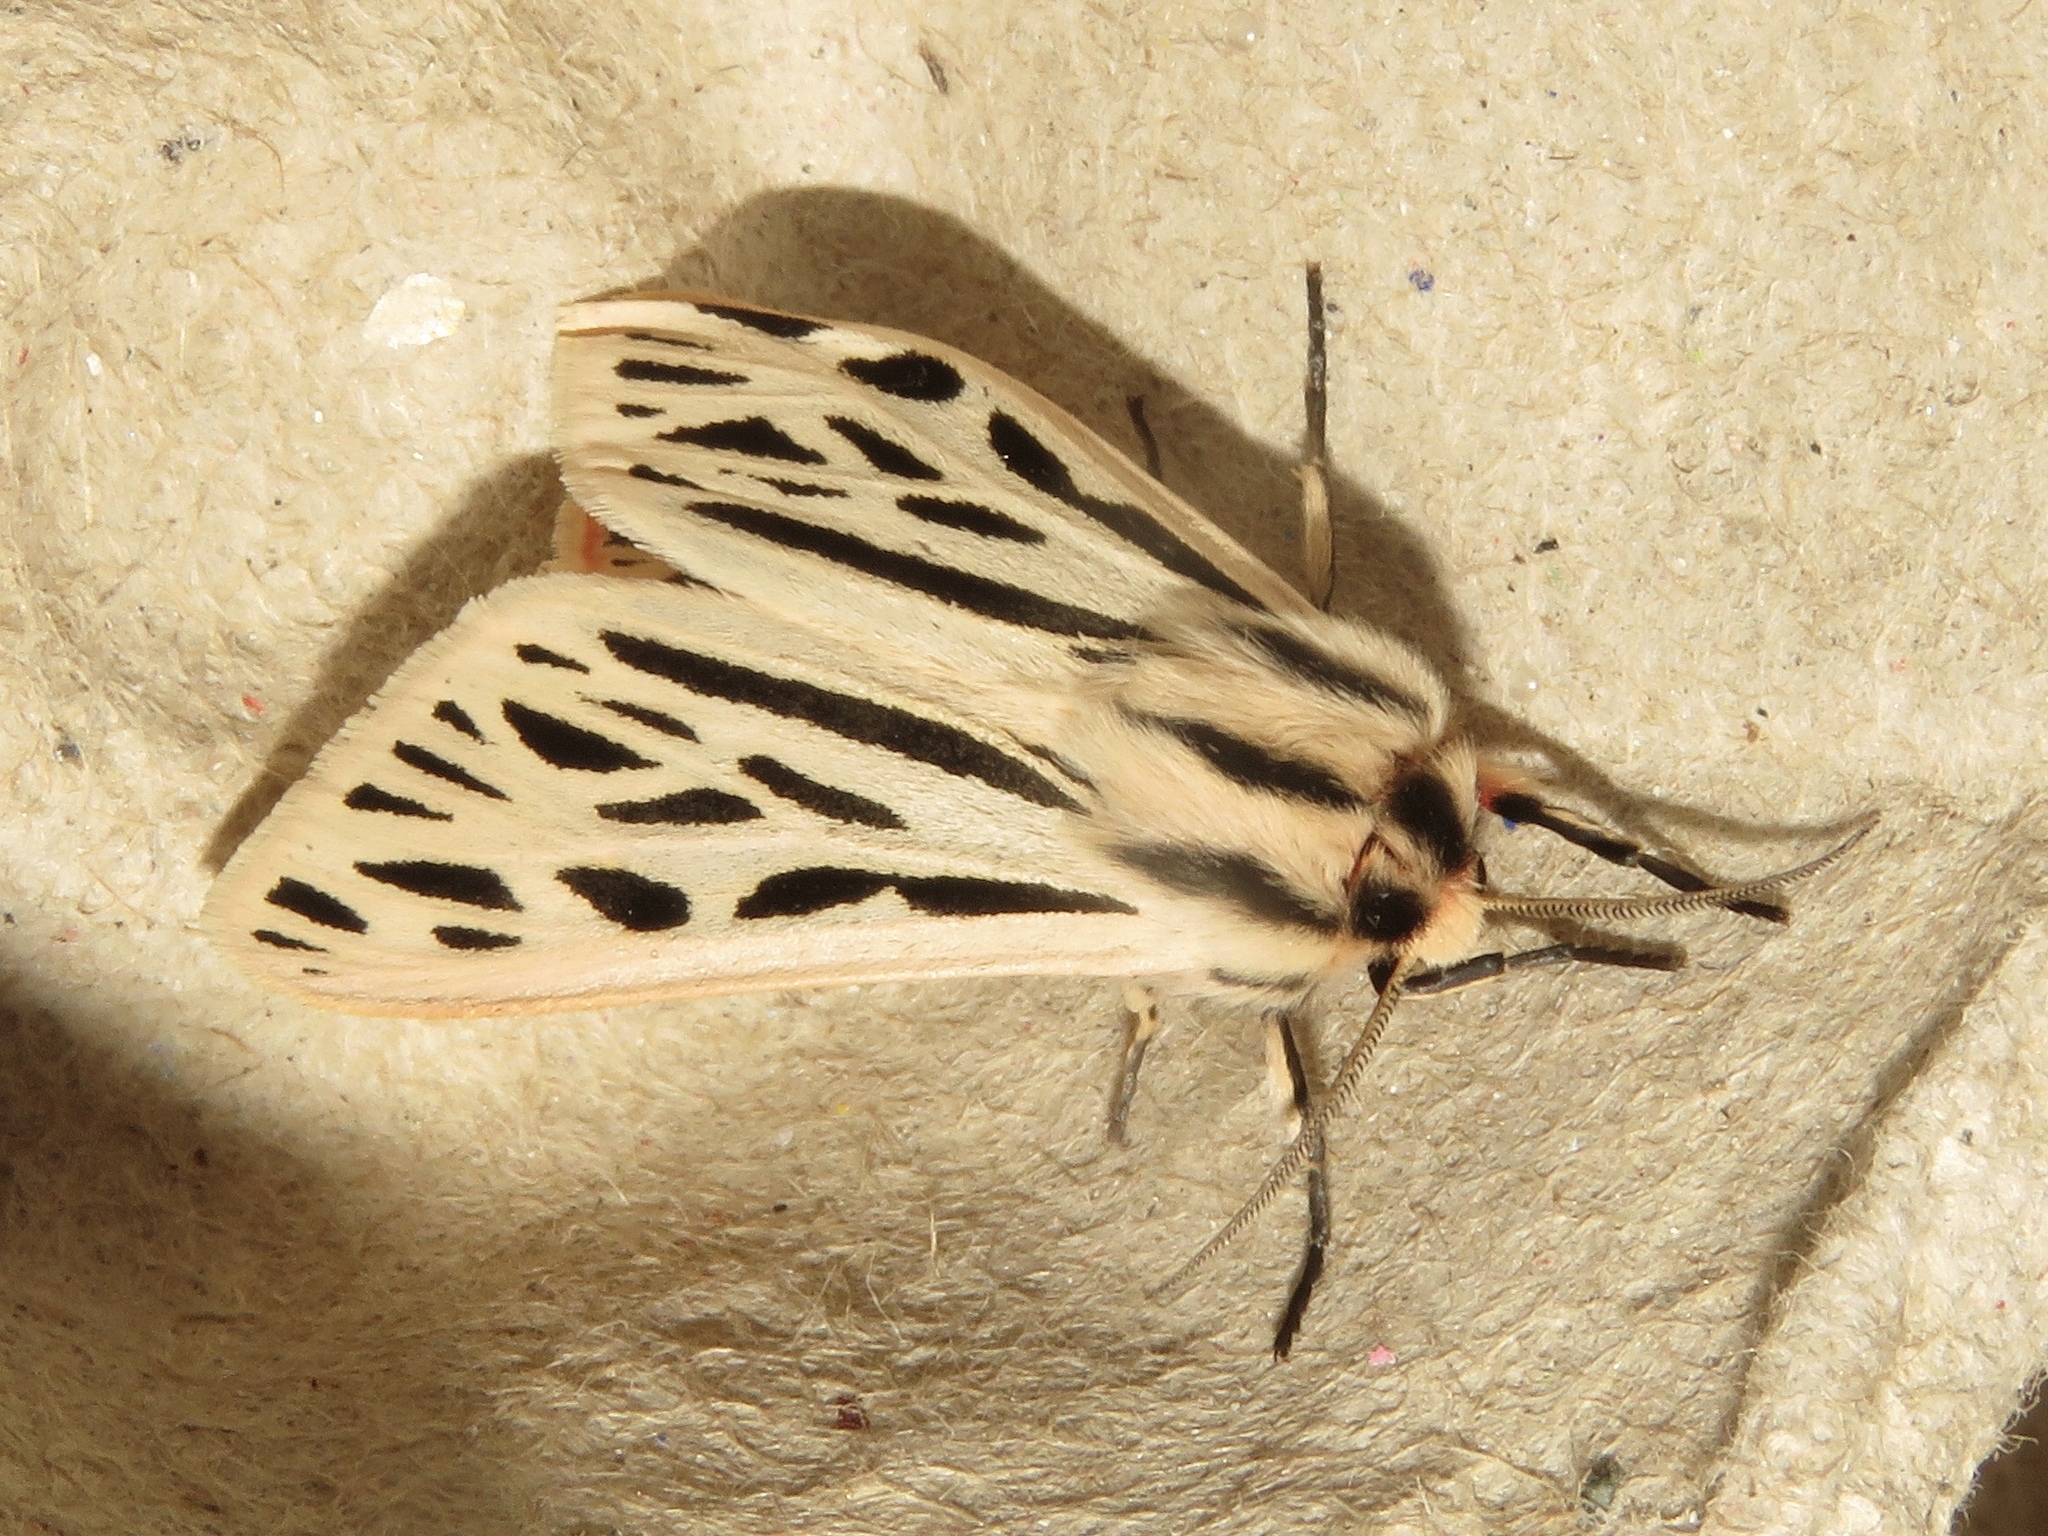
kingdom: Animalia
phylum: Arthropoda
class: Insecta
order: Lepidoptera
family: Erebidae
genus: Apantesis
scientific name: Apantesis arge
